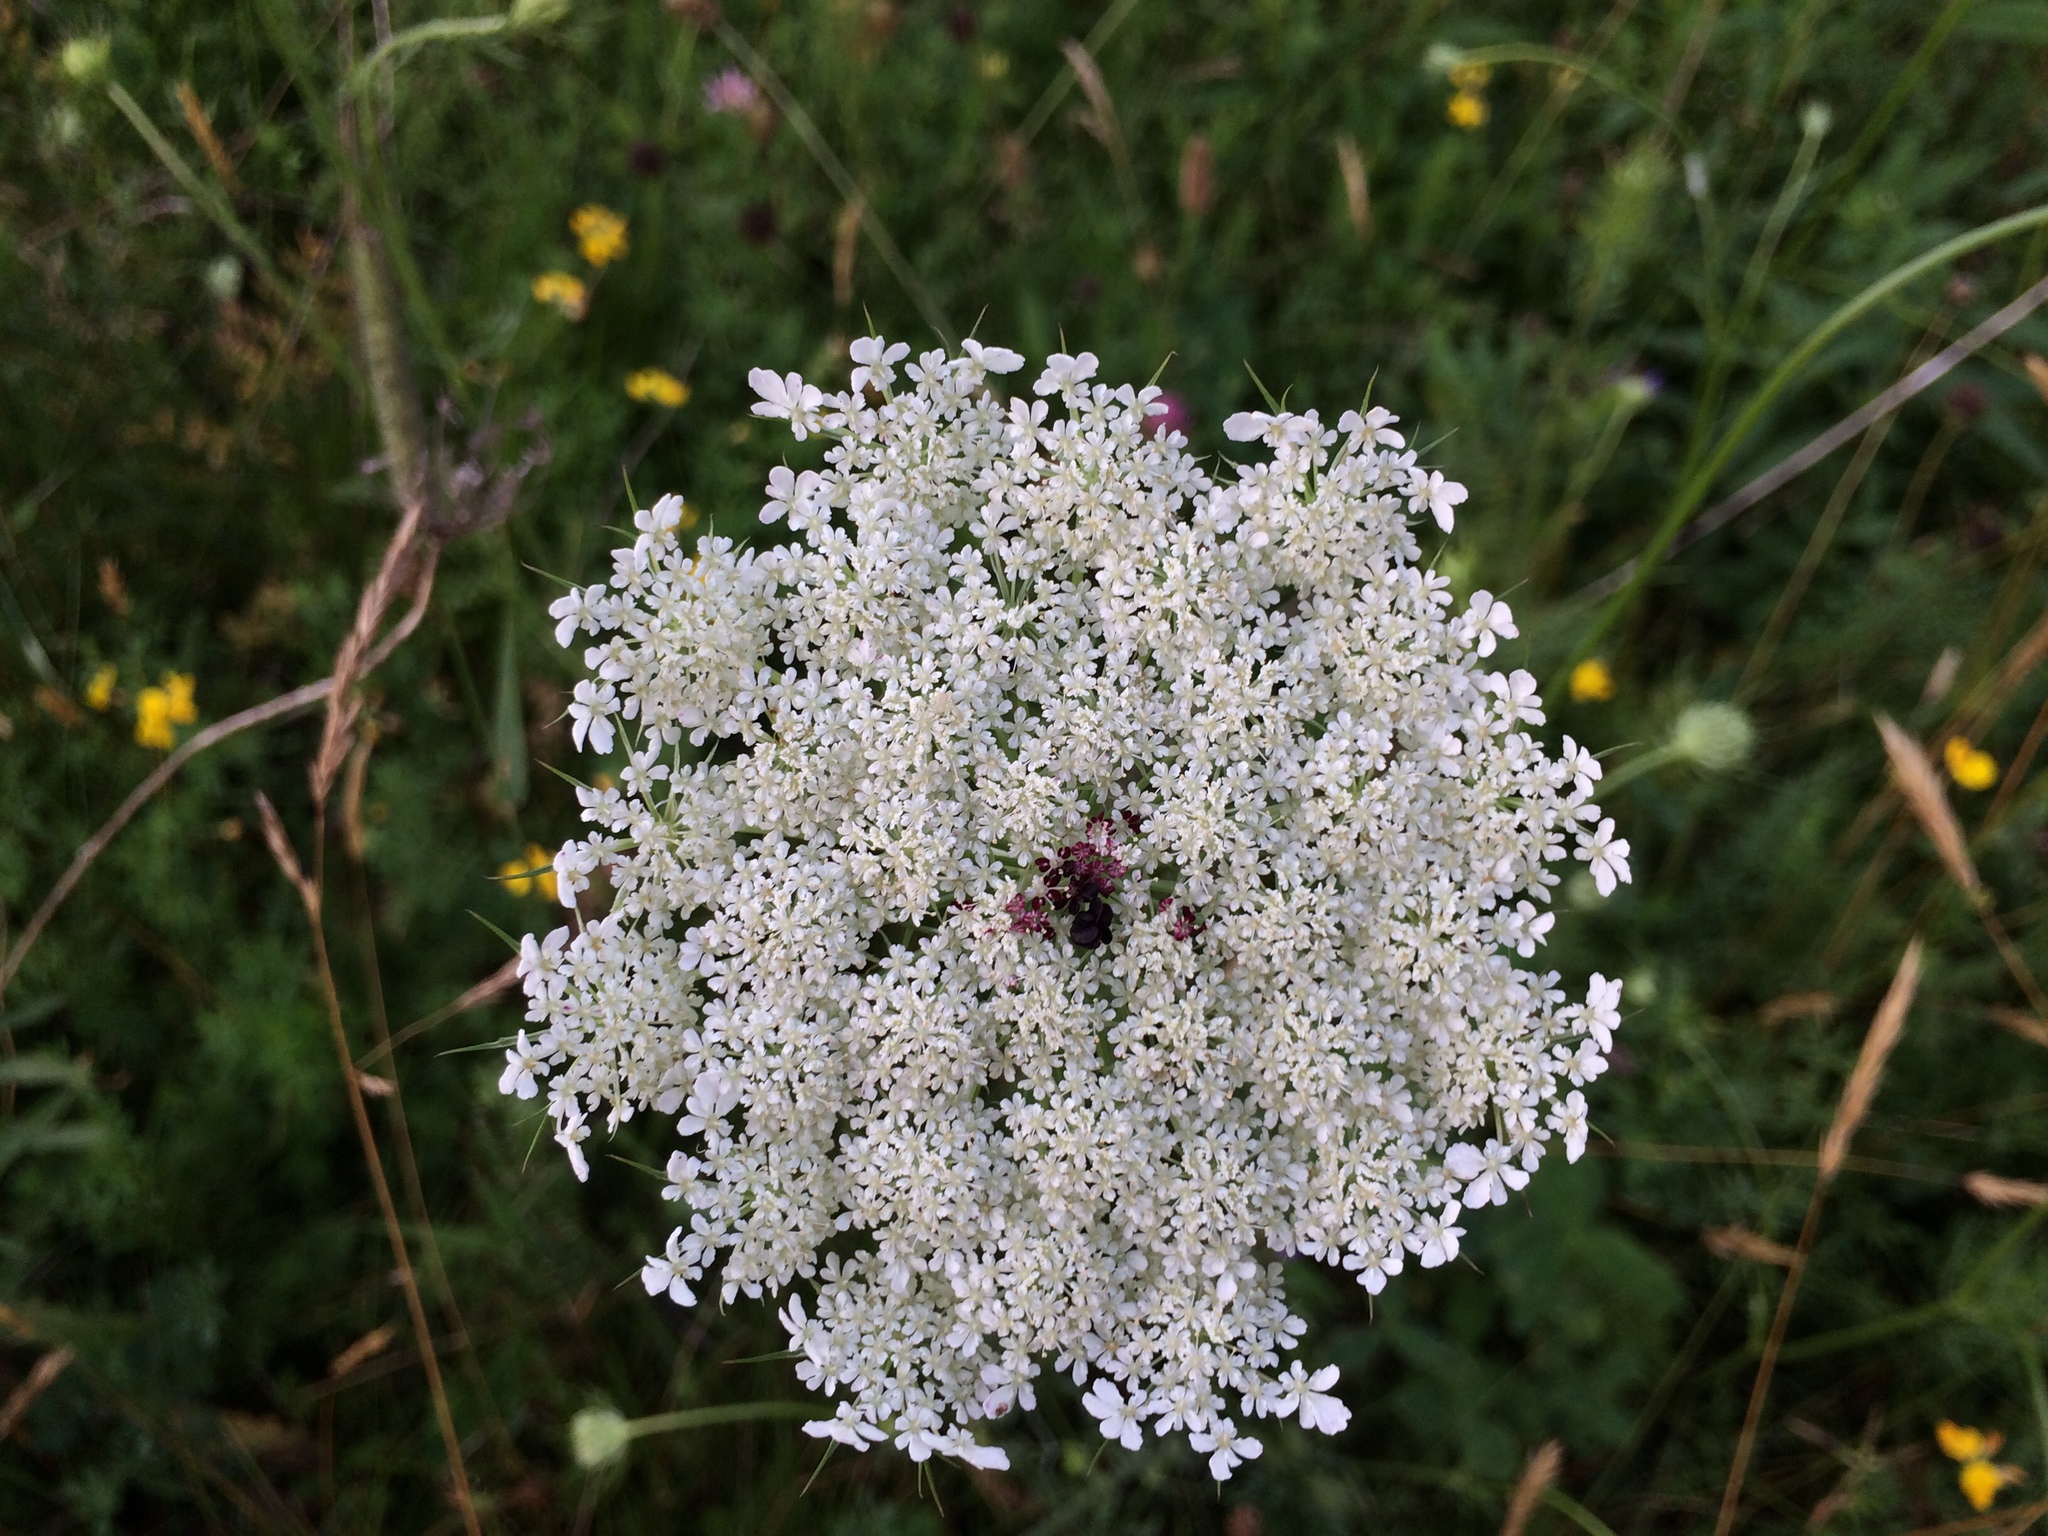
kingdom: Plantae
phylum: Tracheophyta
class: Magnoliopsida
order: Apiales
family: Apiaceae
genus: Daucus
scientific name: Daucus carota
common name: Wild carrot
